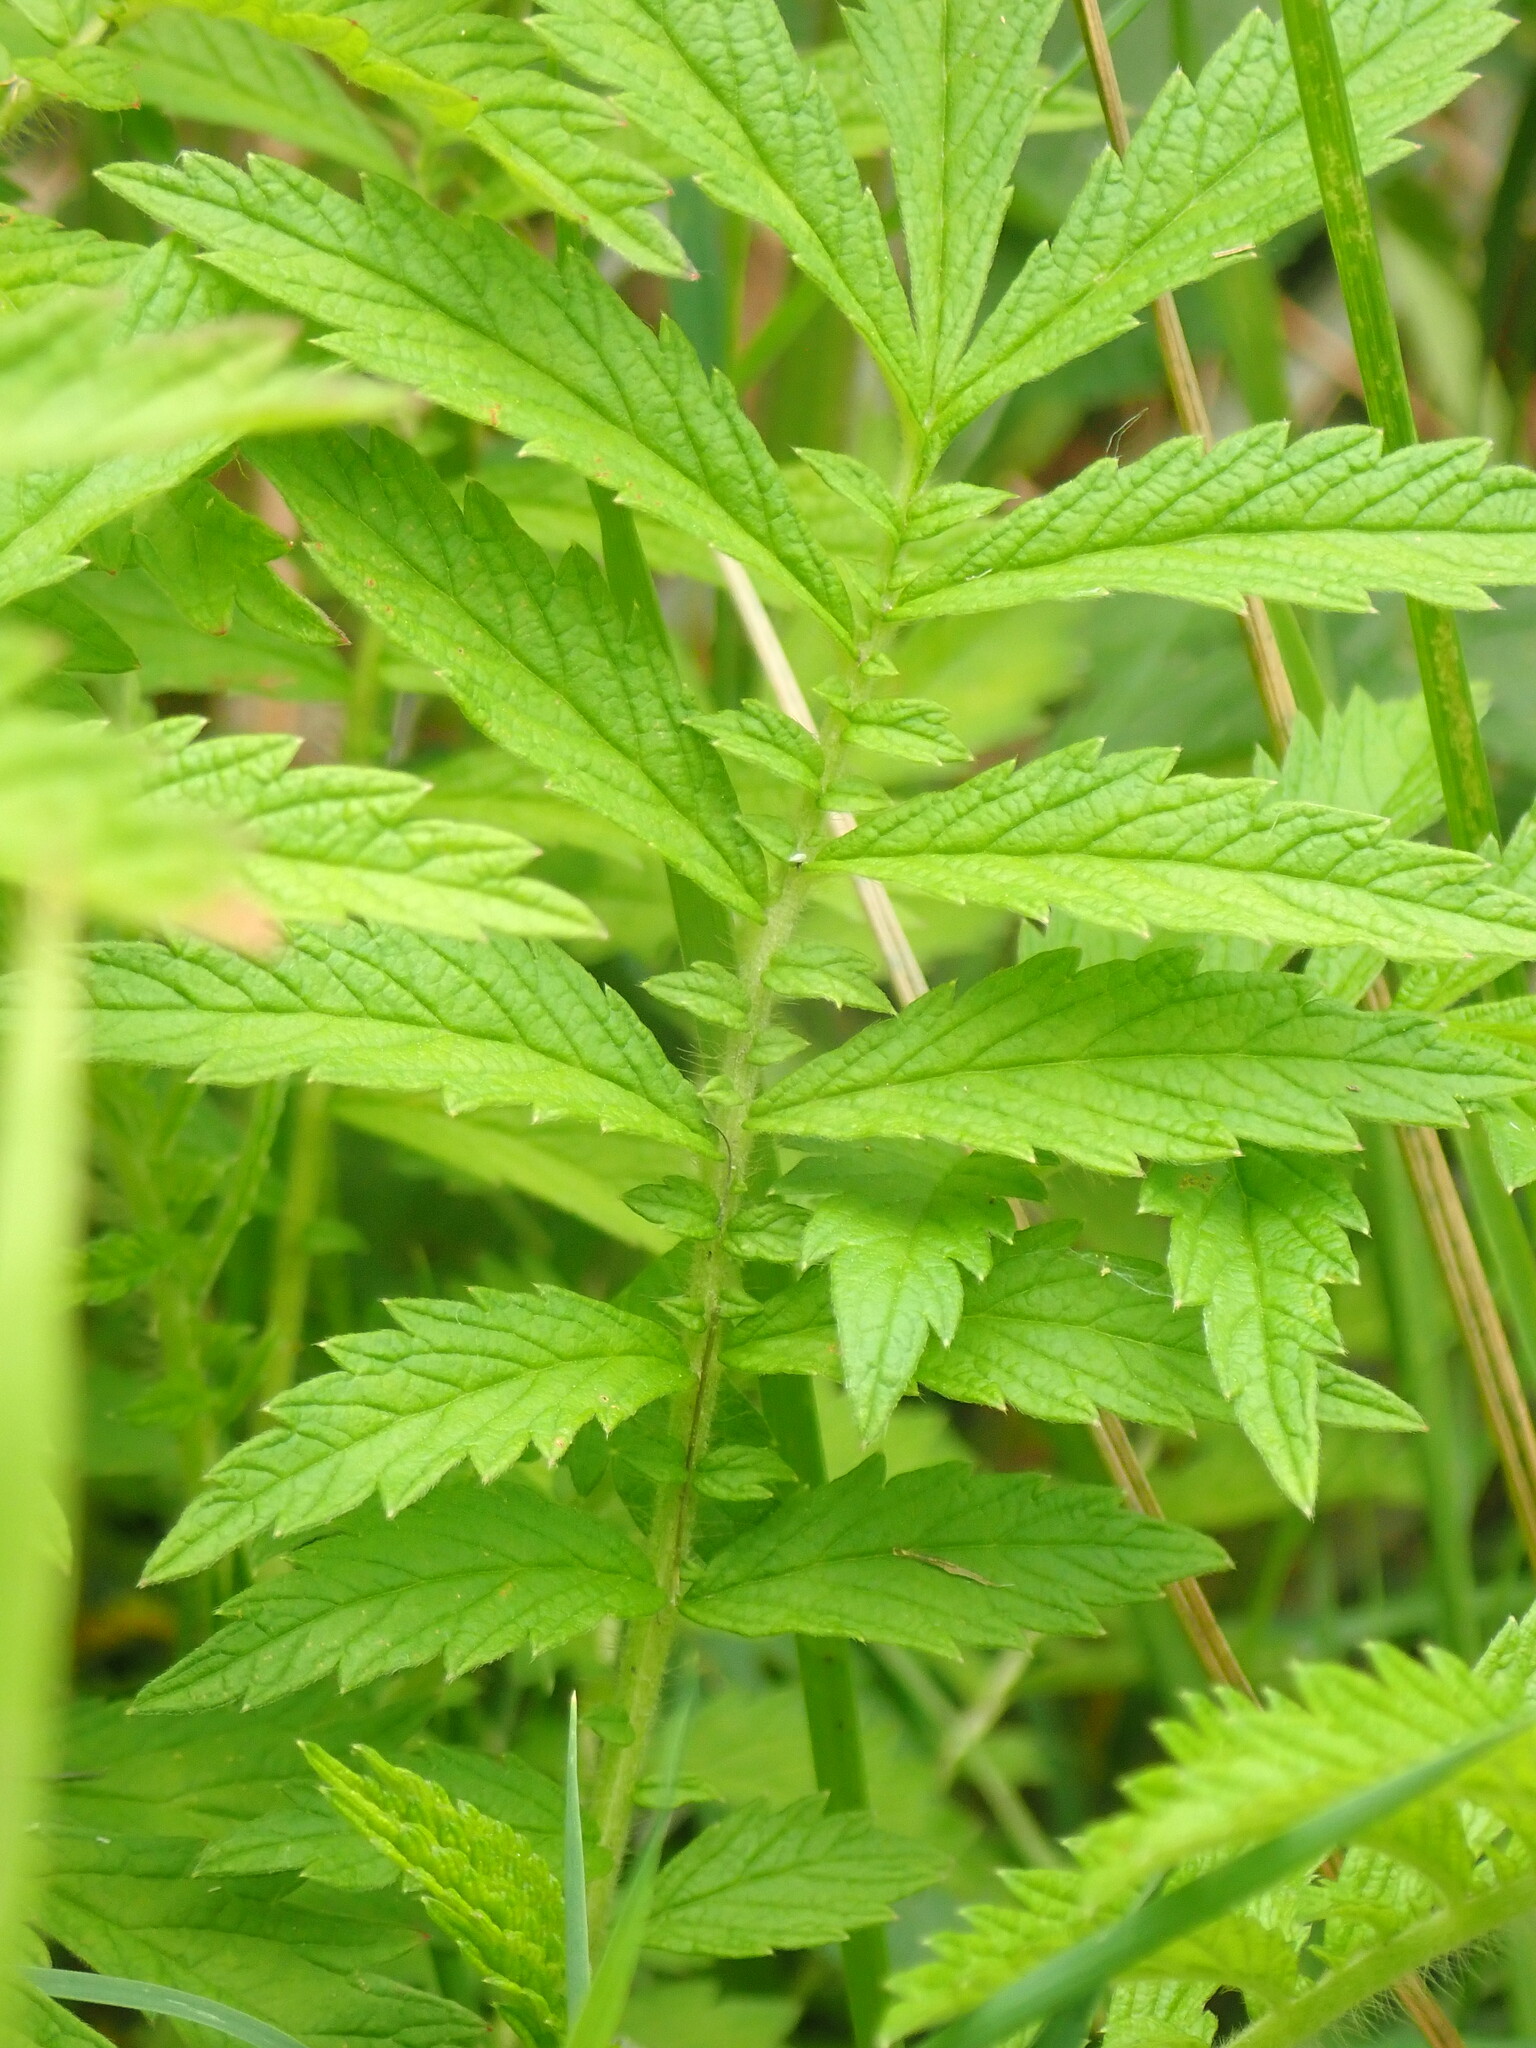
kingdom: Plantae
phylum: Tracheophyta
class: Magnoliopsida
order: Rosales
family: Rosaceae
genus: Agrimonia
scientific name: Agrimonia parviflora
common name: Harvest-lice
